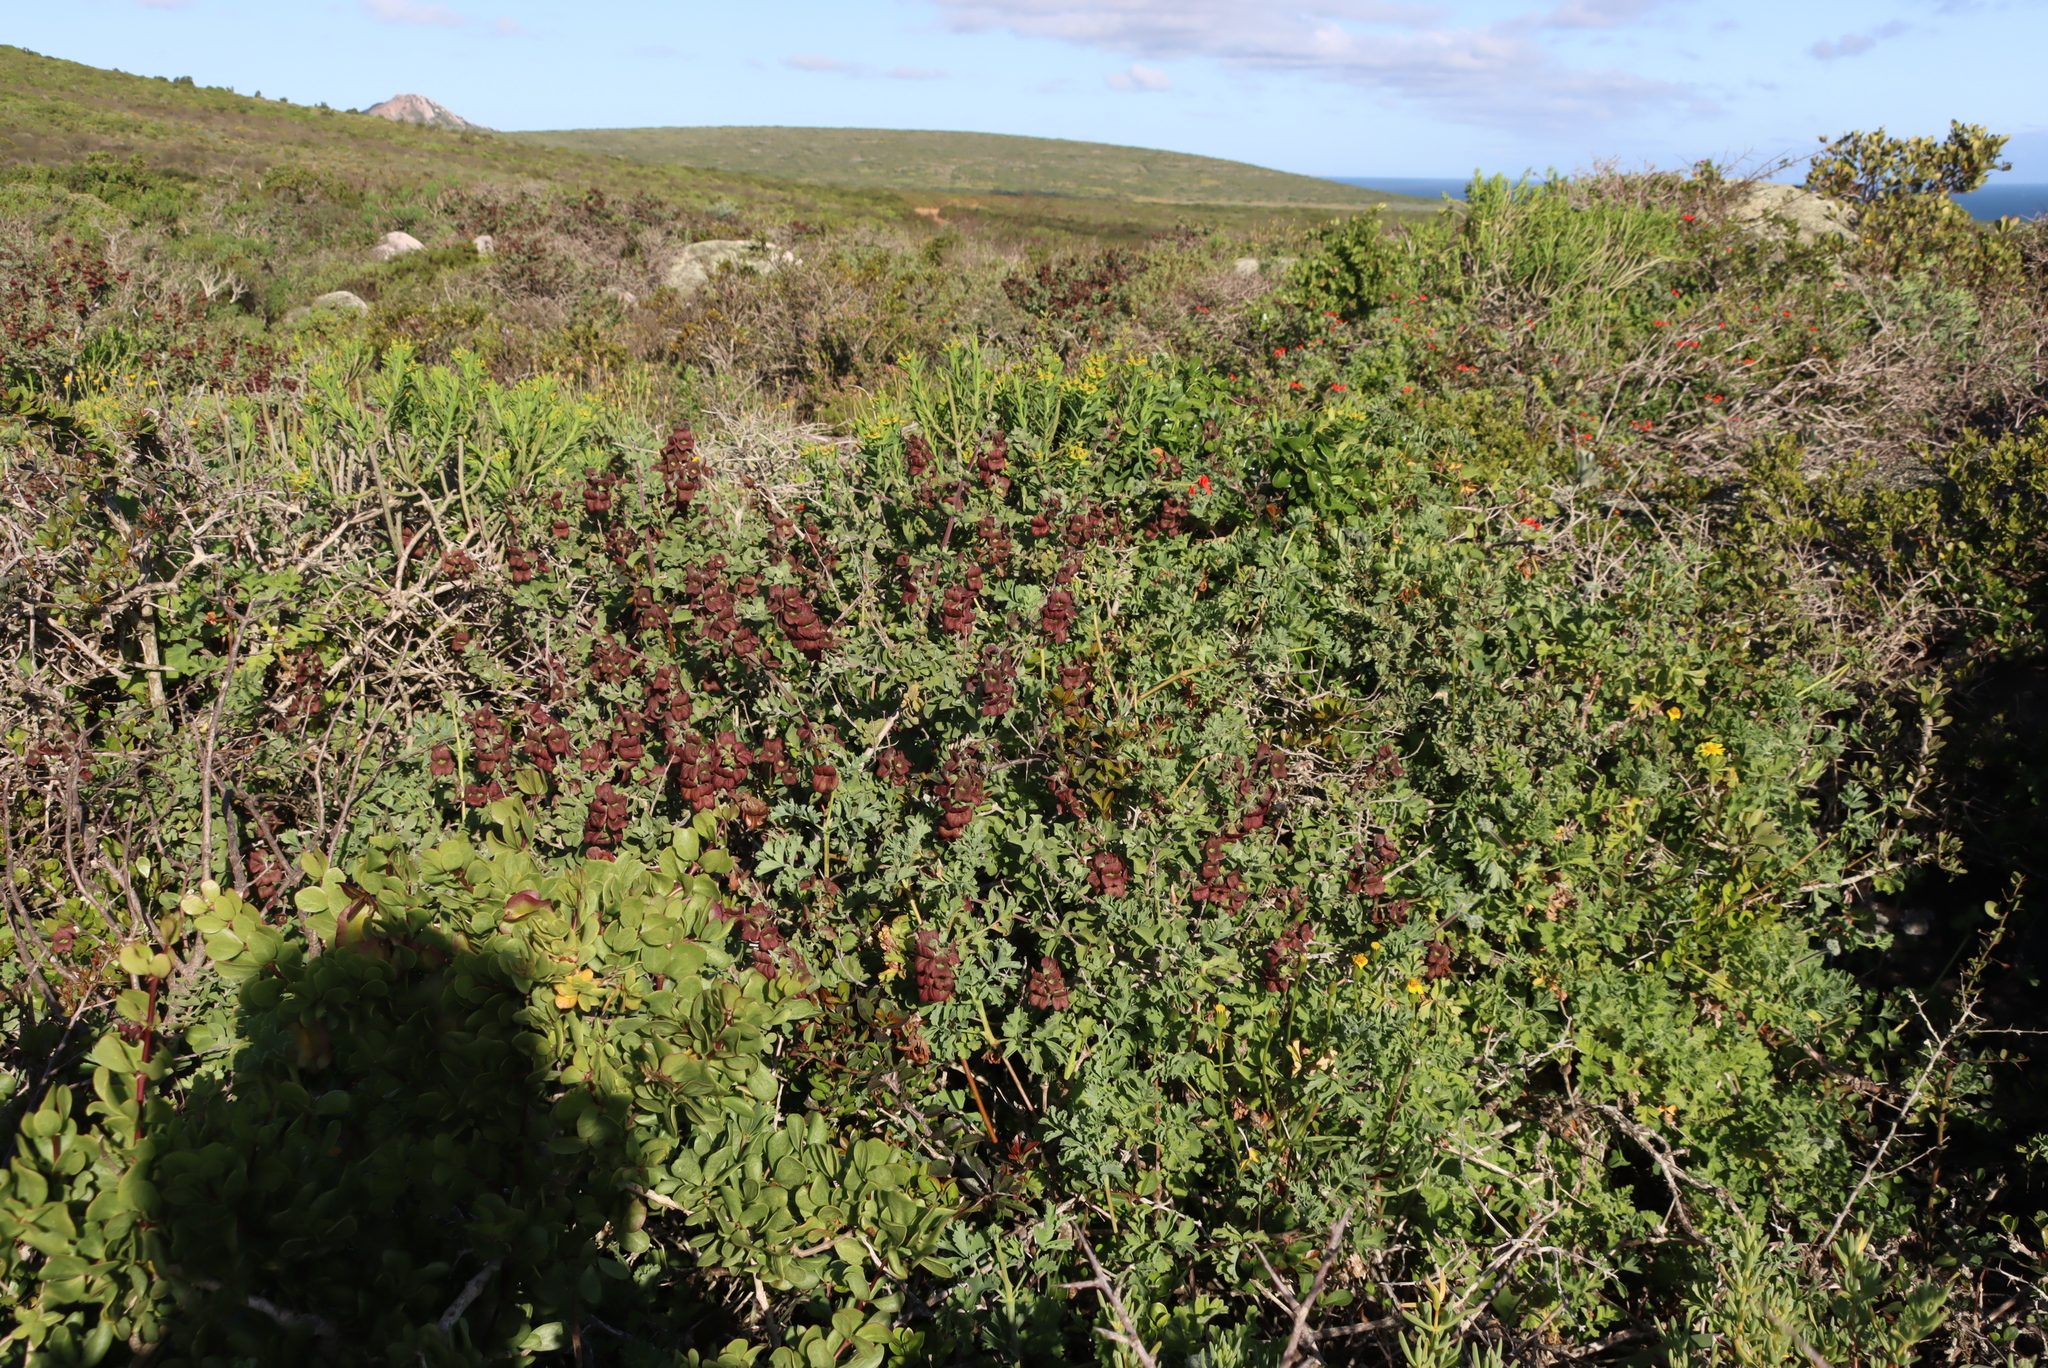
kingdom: Plantae
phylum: Tracheophyta
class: Magnoliopsida
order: Lamiales
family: Lamiaceae
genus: Salvia
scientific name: Salvia aurea
